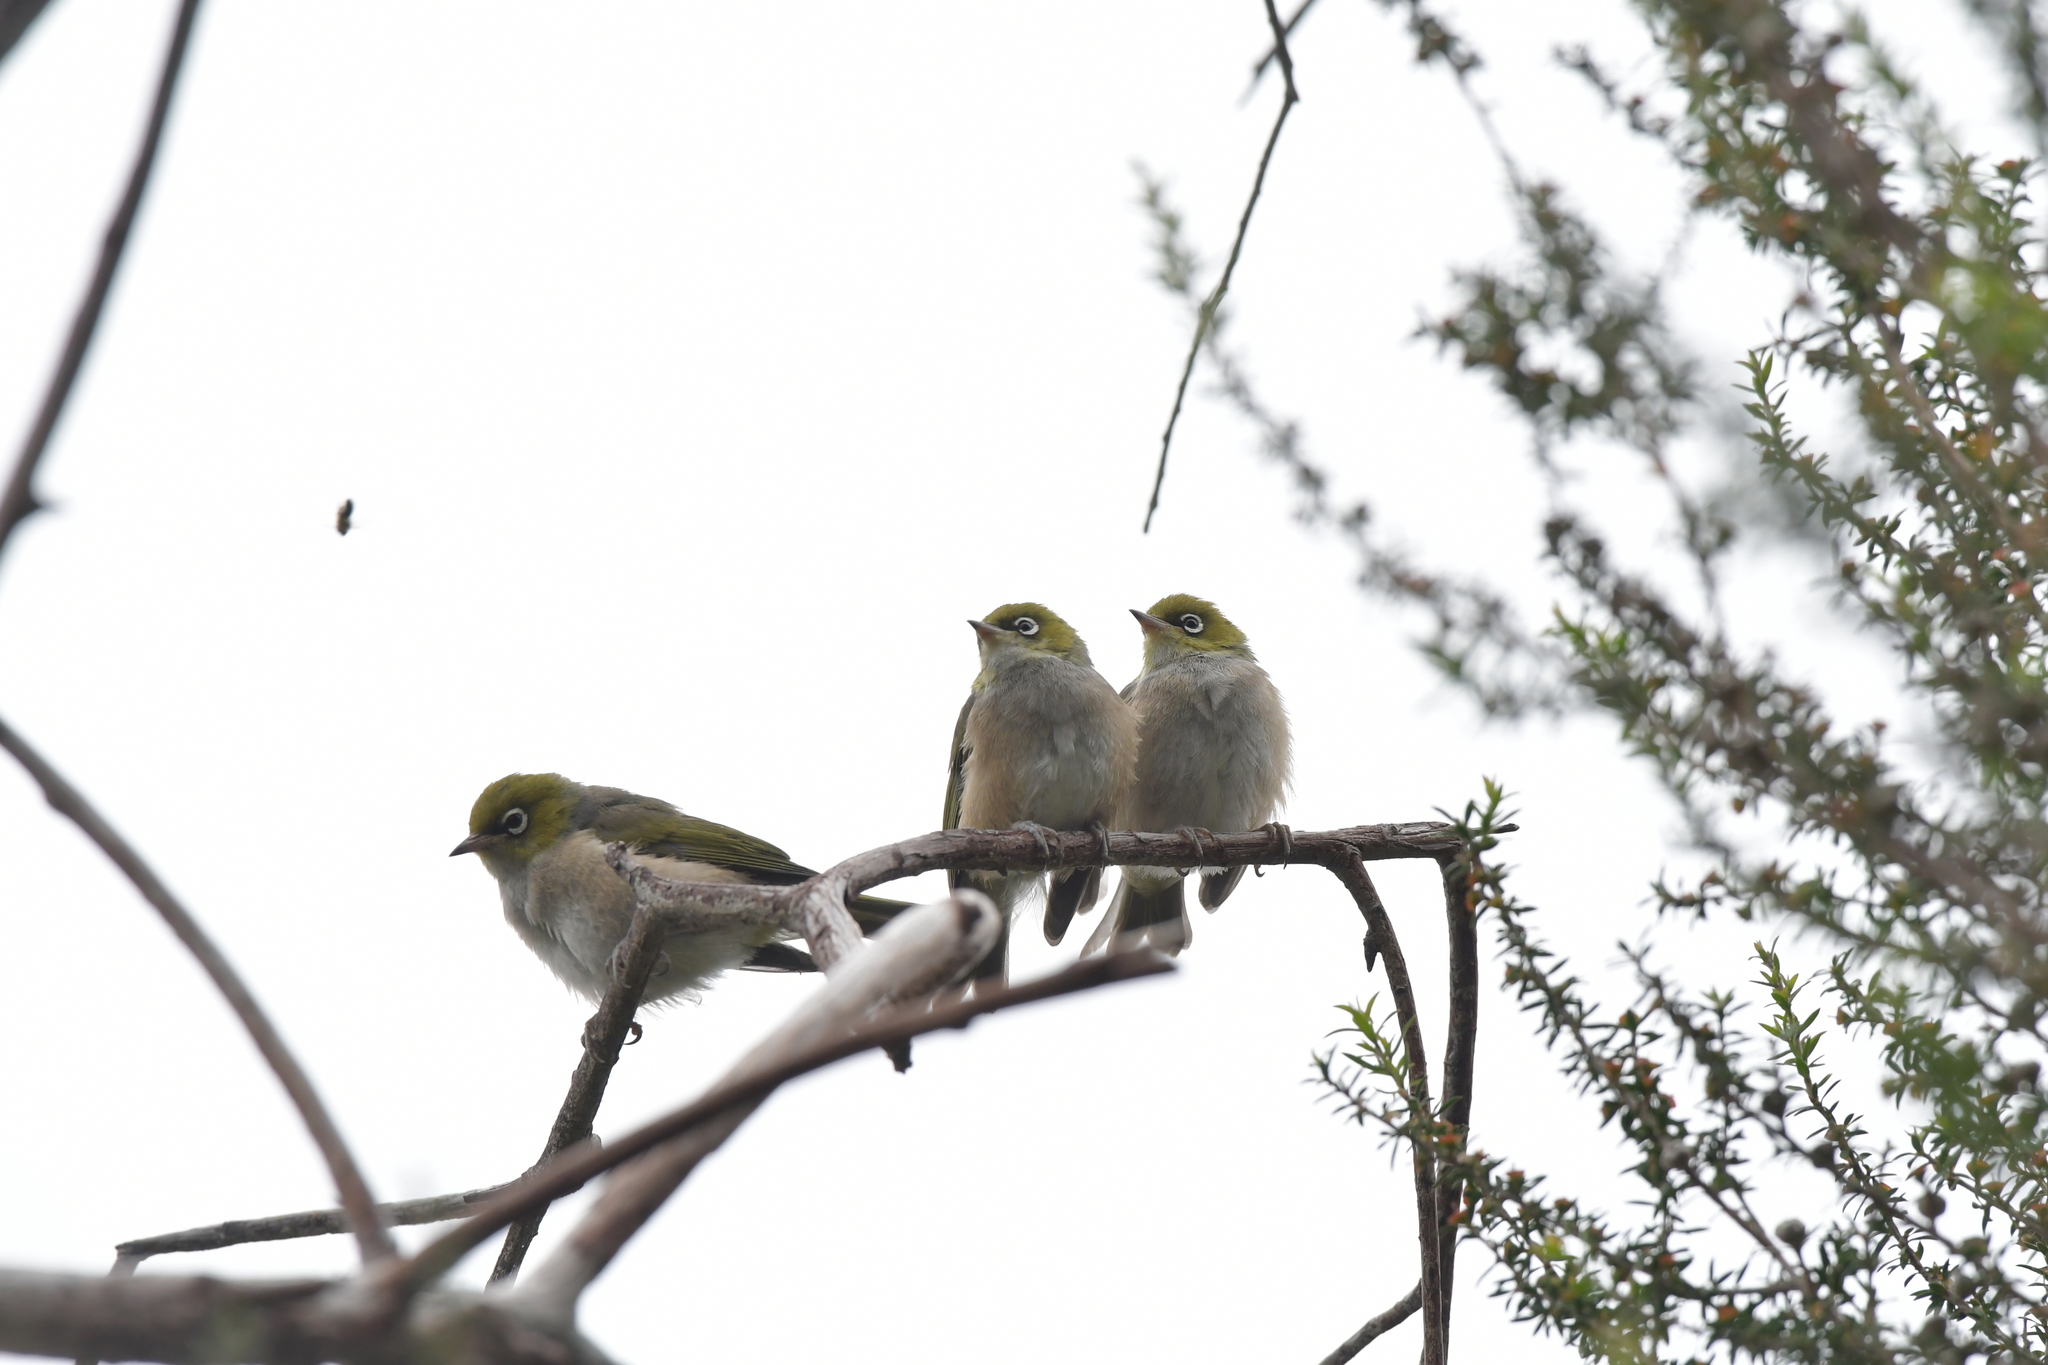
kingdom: Animalia
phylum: Chordata
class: Aves
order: Passeriformes
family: Zosteropidae
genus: Zosterops
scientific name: Zosterops lateralis
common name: Silvereye
